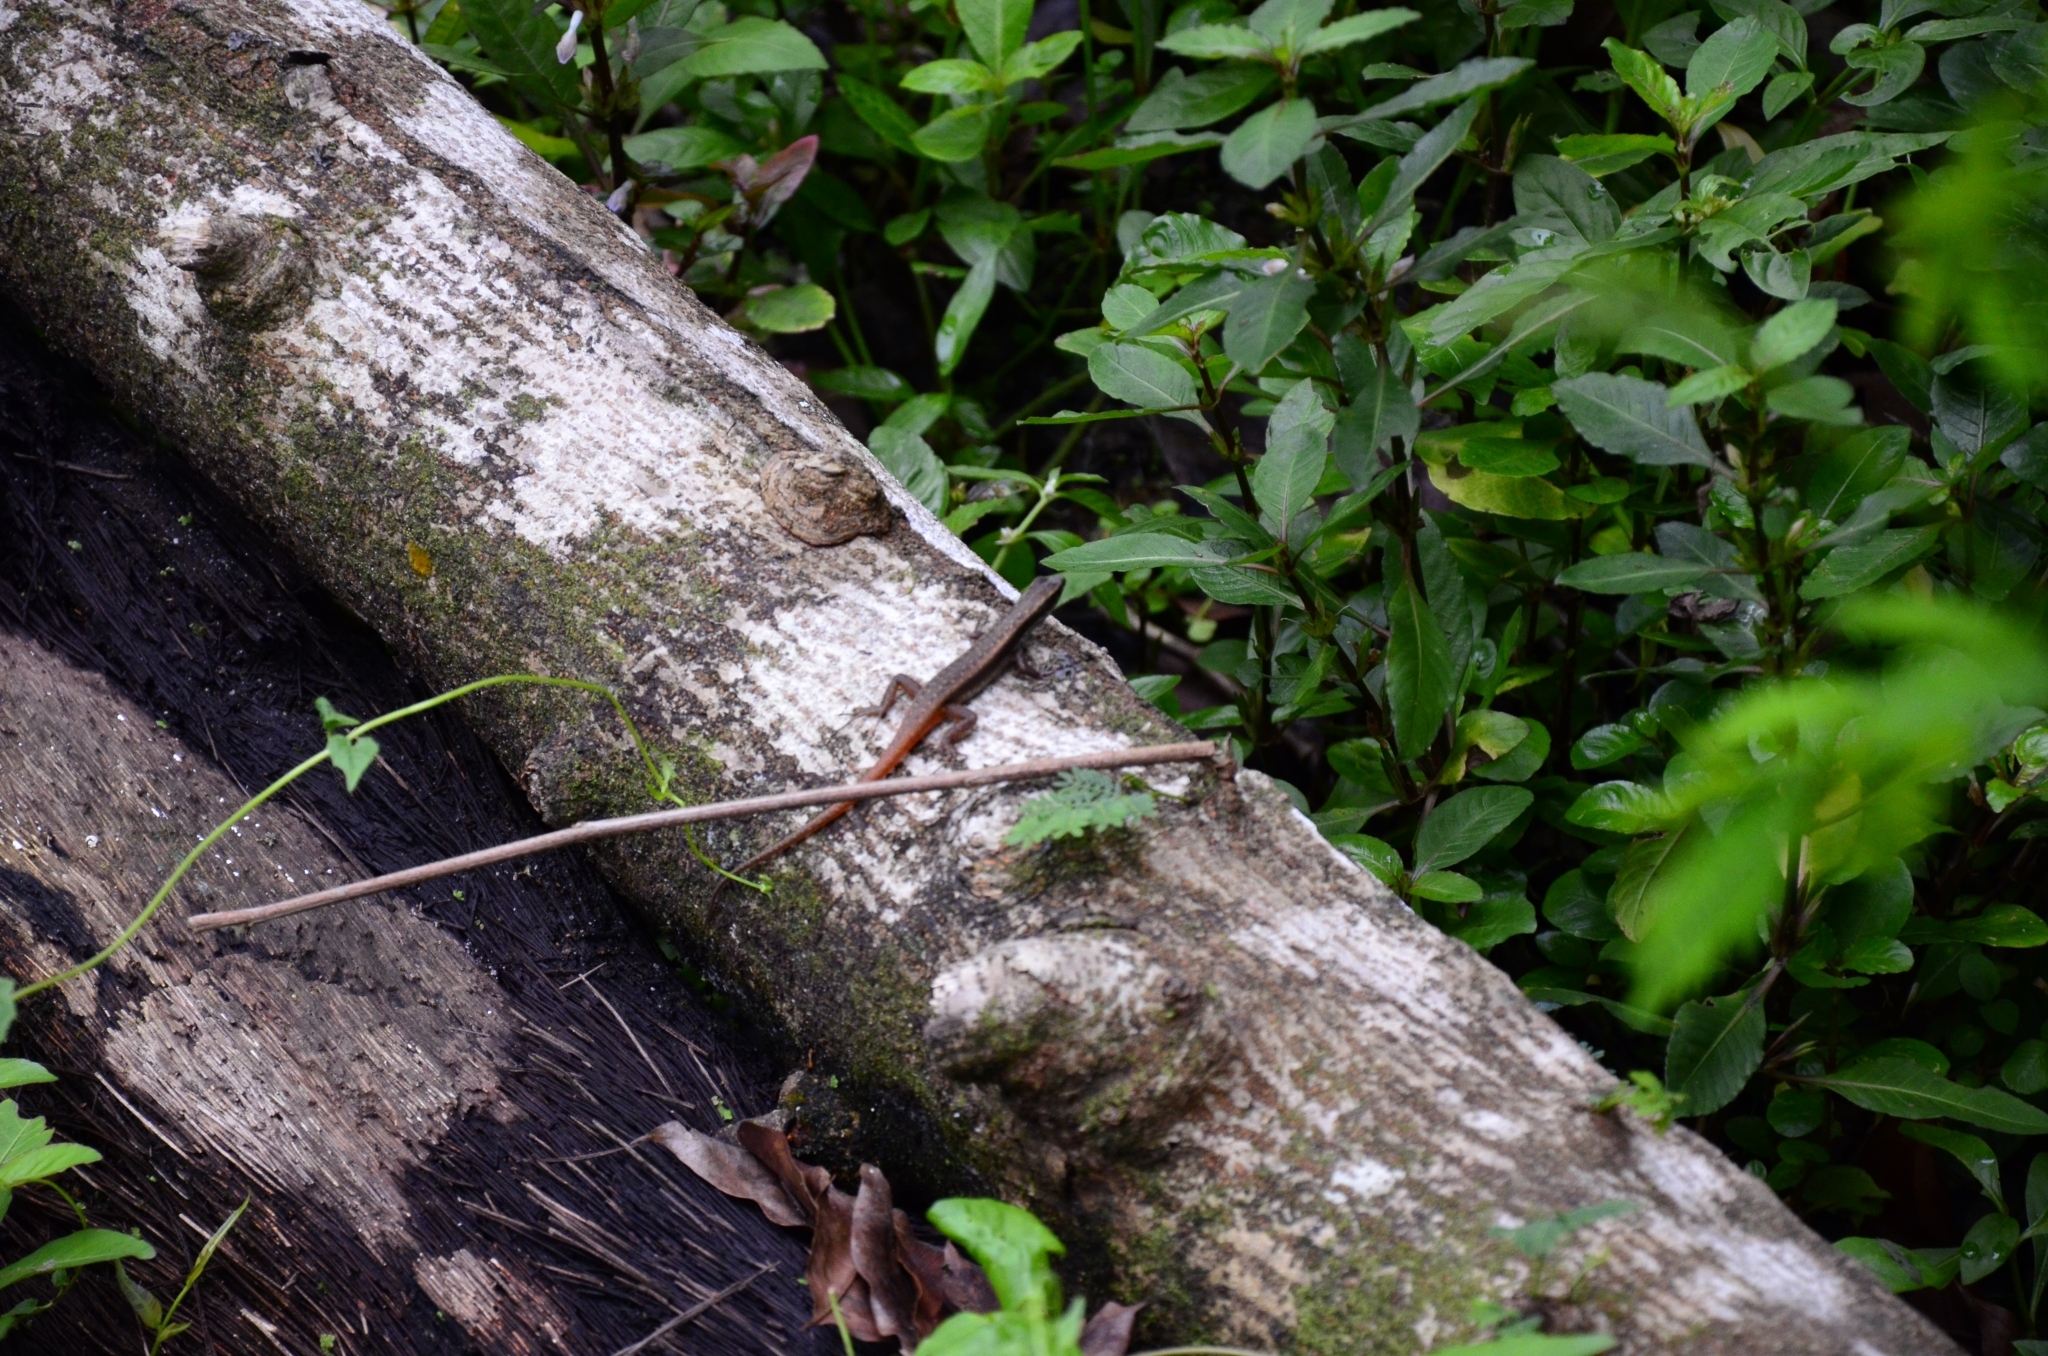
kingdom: Animalia
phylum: Chordata
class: Squamata
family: Scincidae
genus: Sphenomorphus
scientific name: Sphenomorphus dussumieri
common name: Dussumier's forest skink
